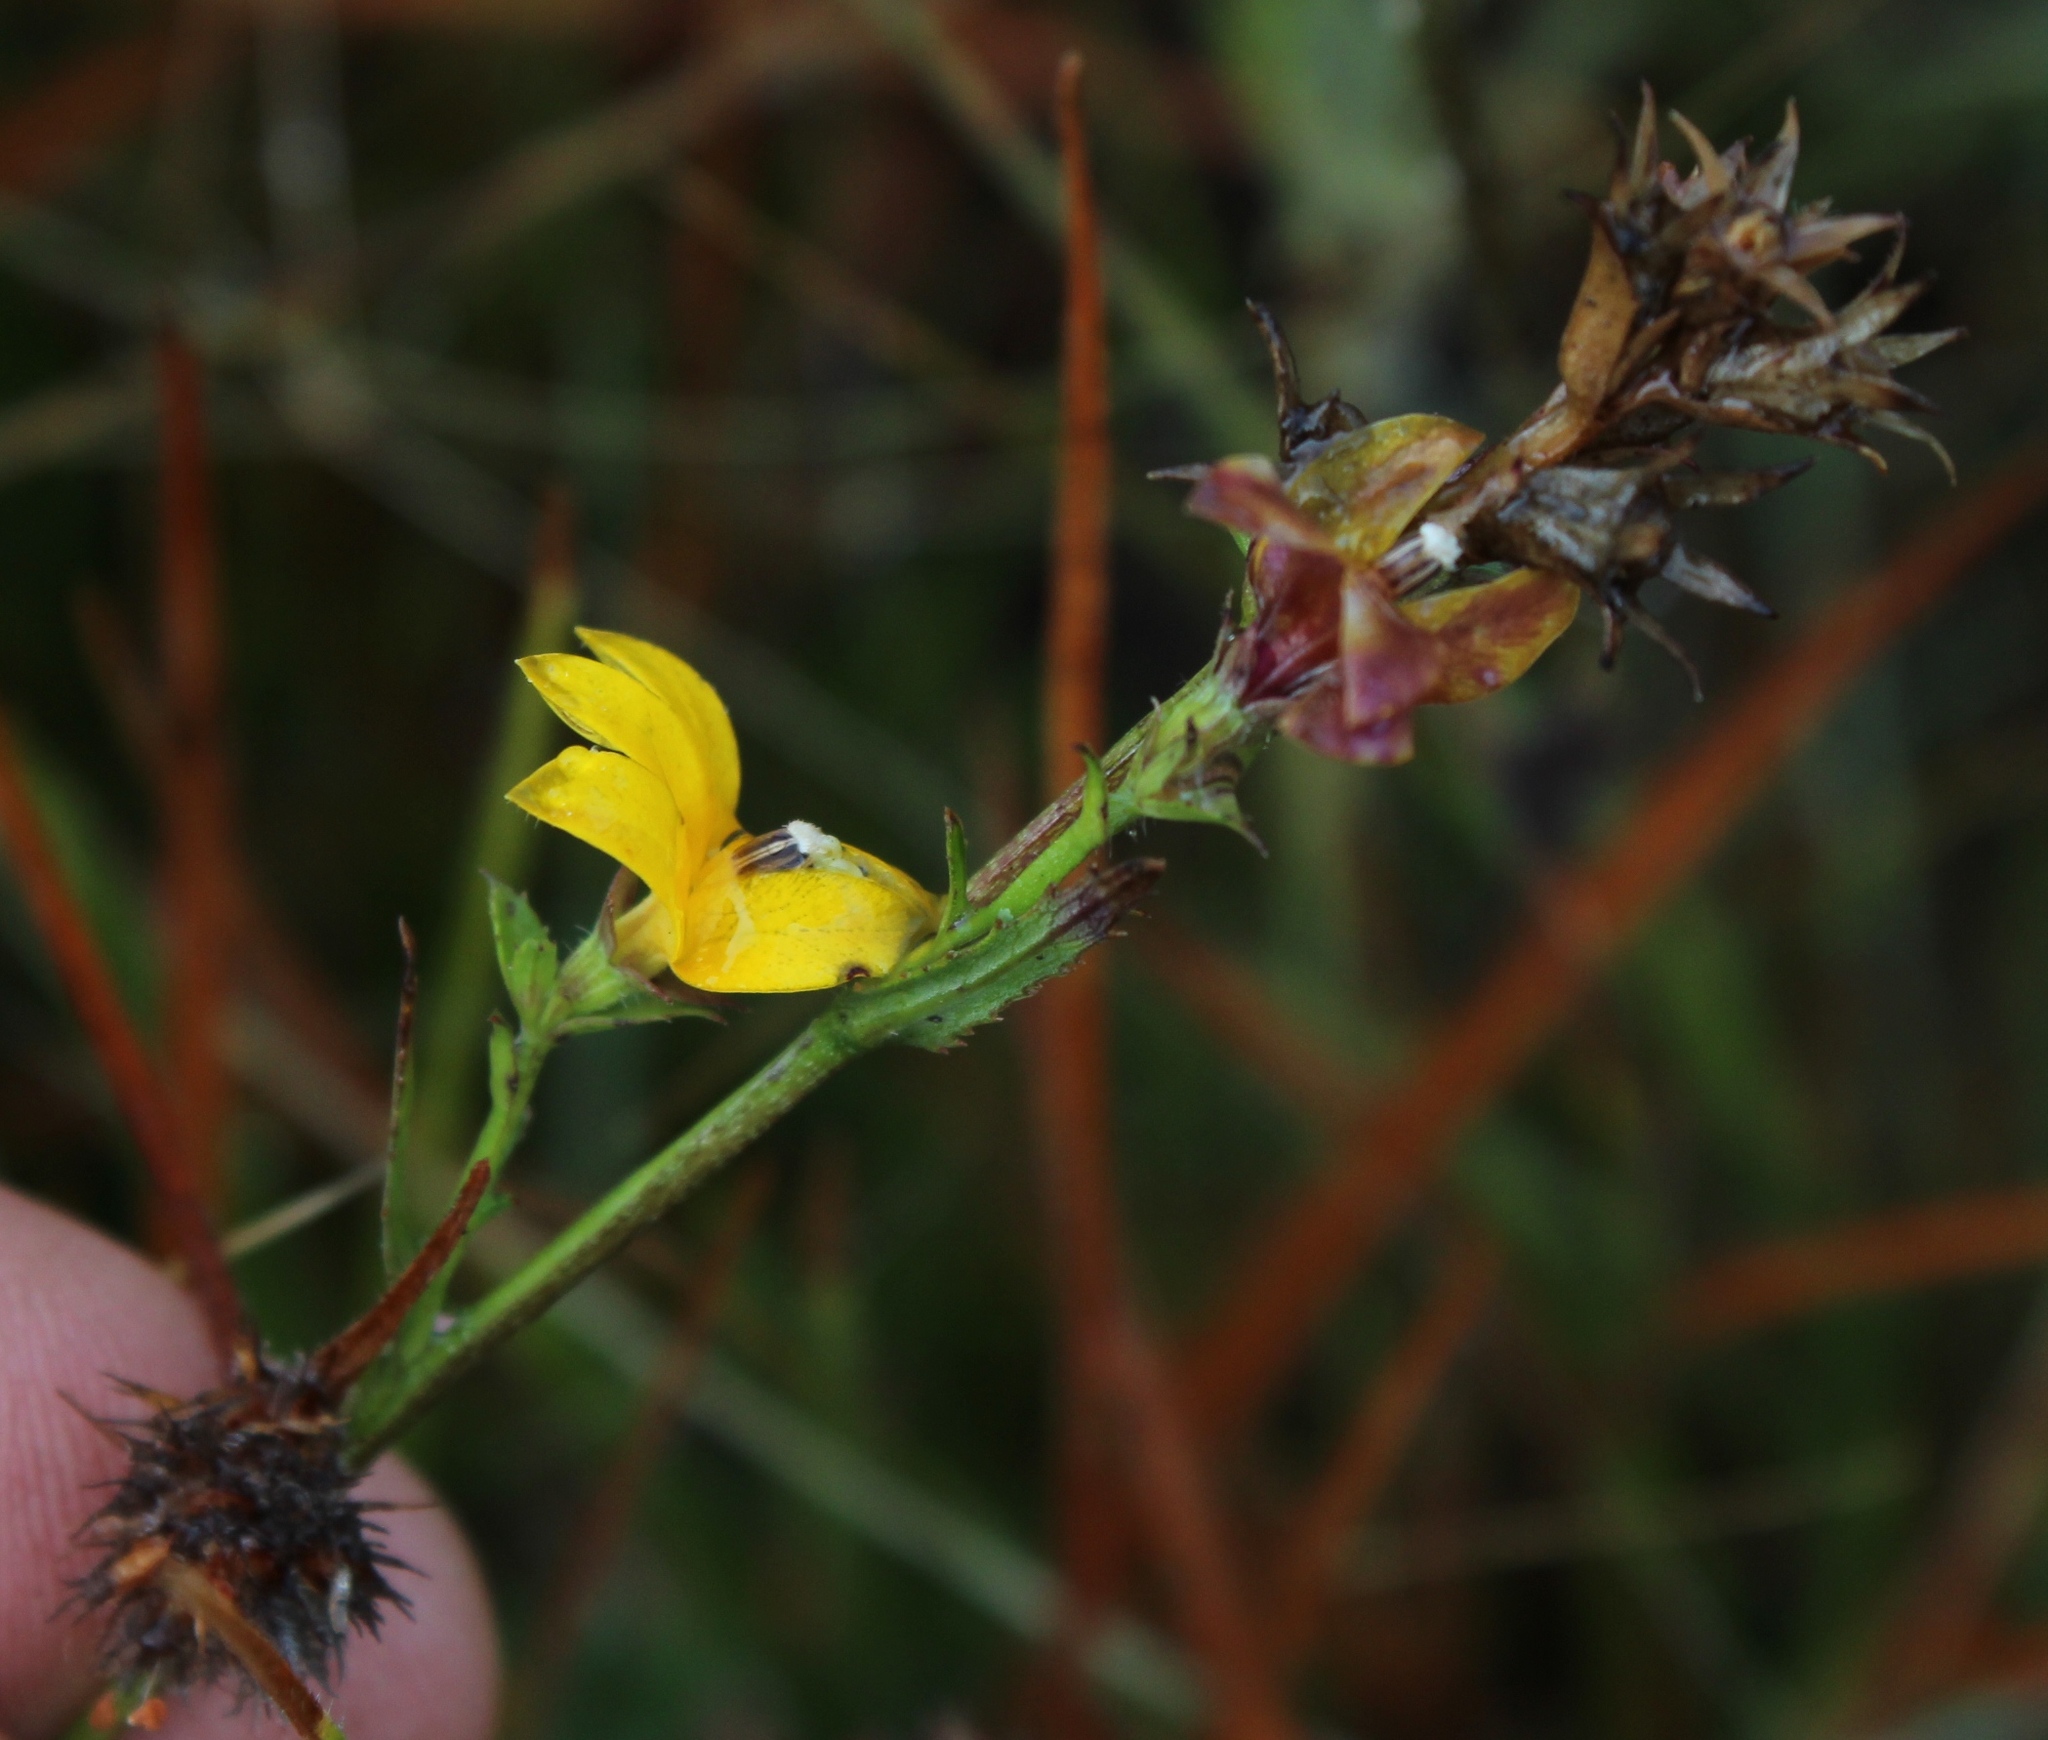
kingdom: Plantae
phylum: Tracheophyta
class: Magnoliopsida
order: Asterales
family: Campanulaceae
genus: Monopsis
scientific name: Monopsis lutea
